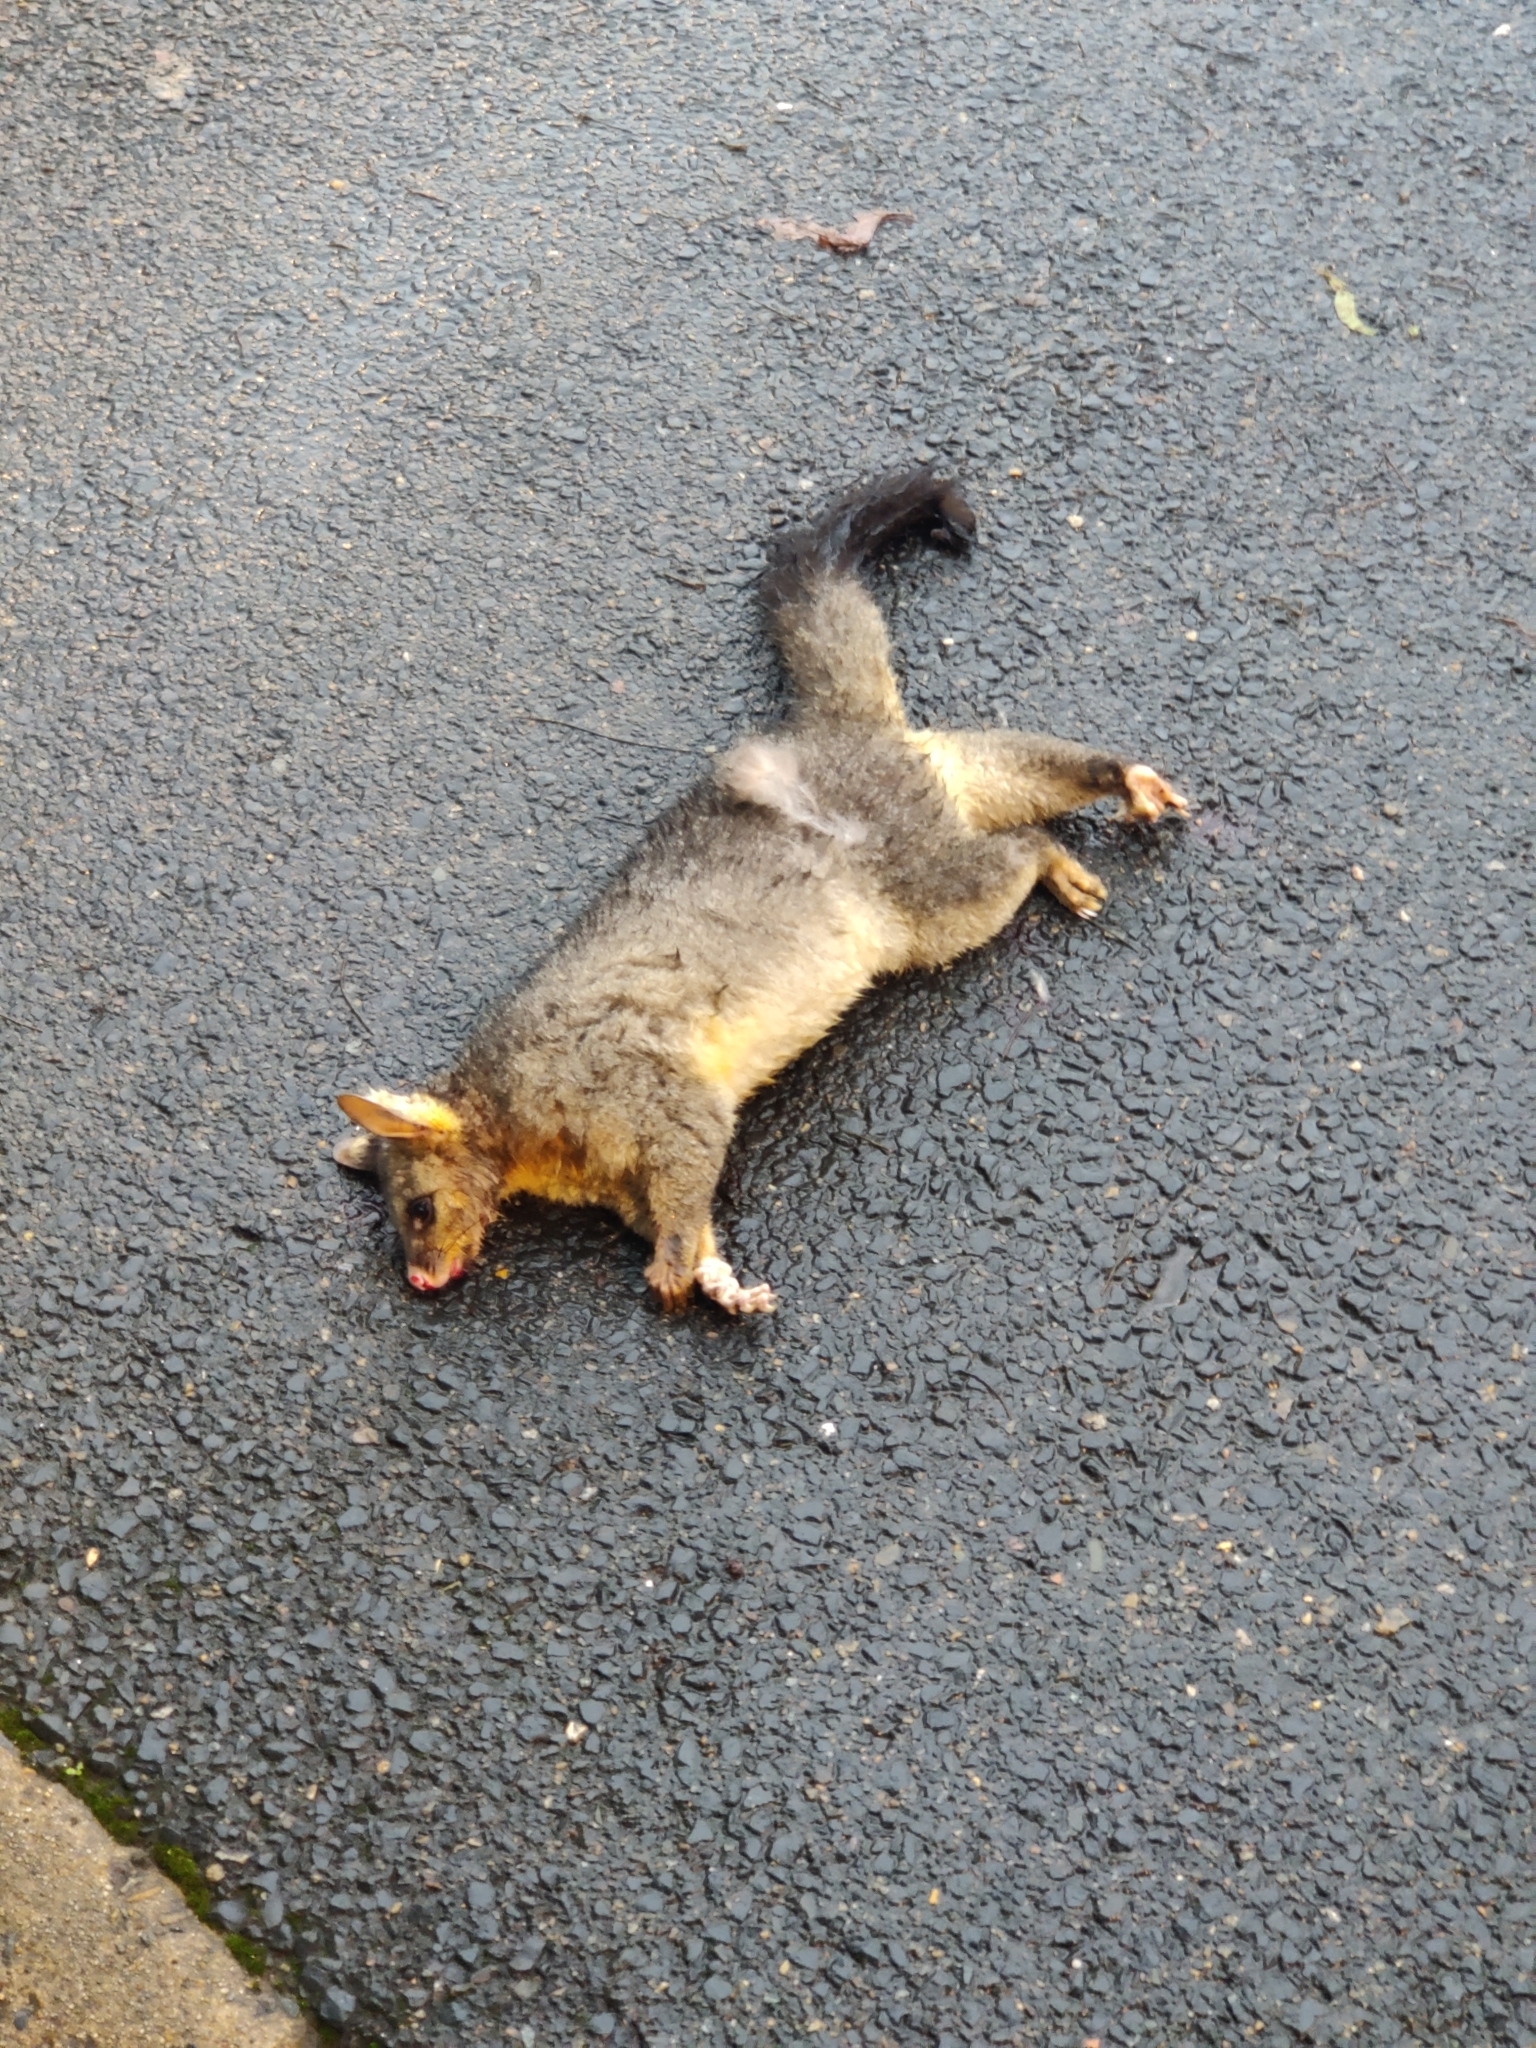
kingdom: Animalia
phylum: Chordata
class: Mammalia
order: Diprotodontia
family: Phalangeridae
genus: Trichosurus
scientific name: Trichosurus vulpecula
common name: Common brushtail
